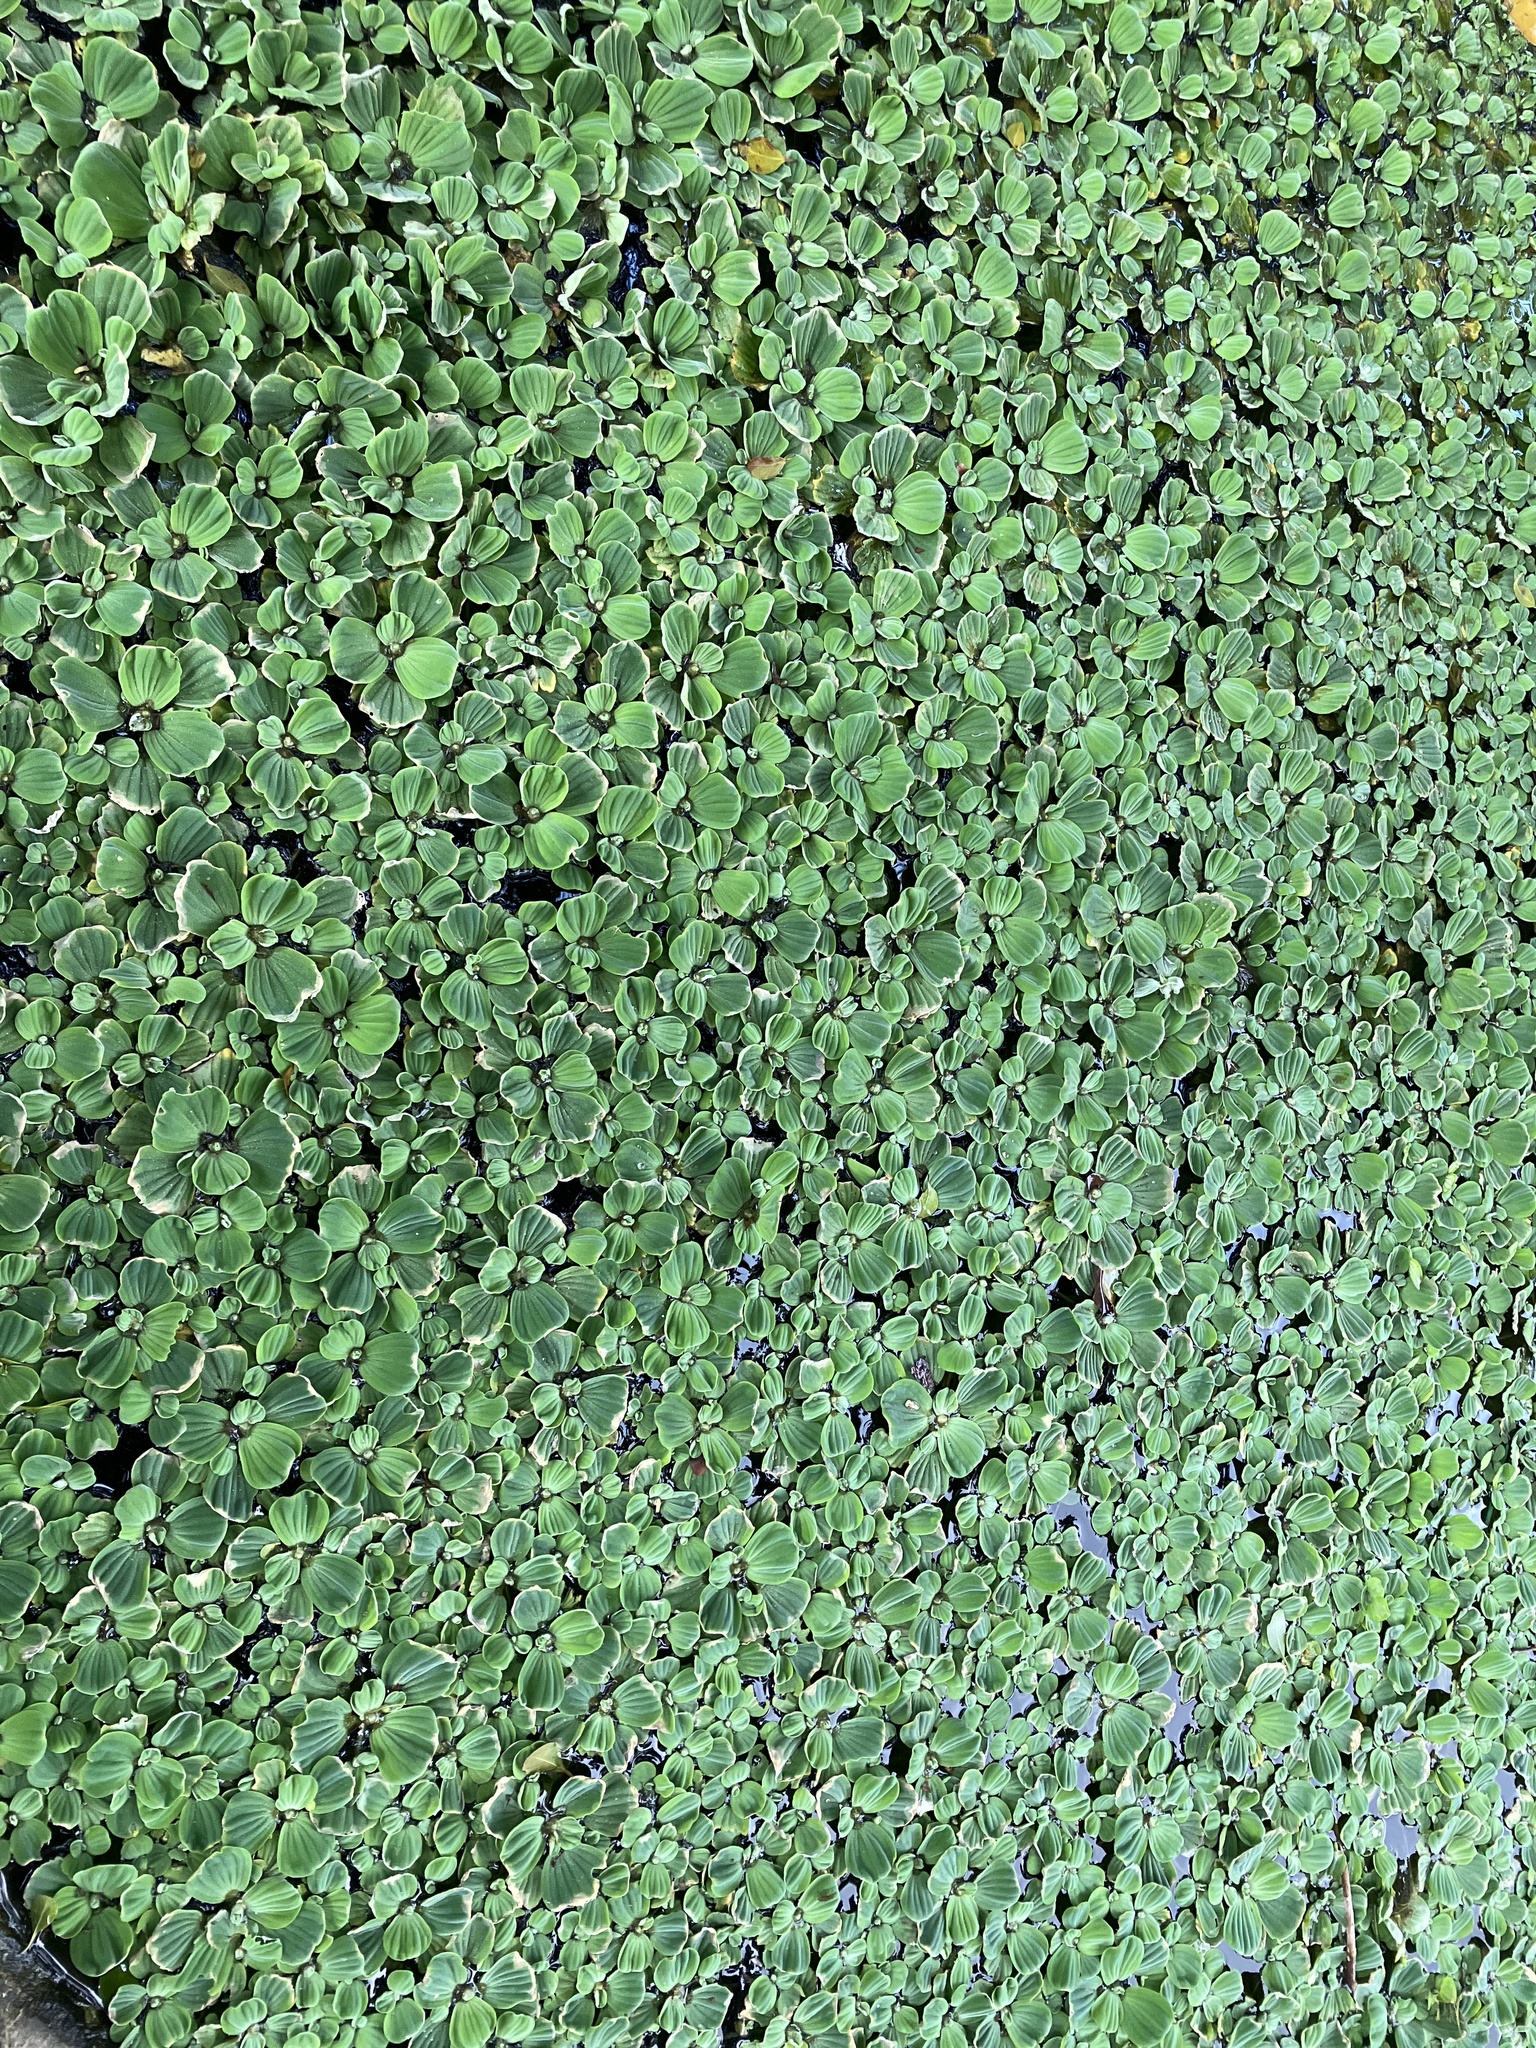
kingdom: Plantae
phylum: Tracheophyta
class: Liliopsida
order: Alismatales
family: Araceae
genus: Pistia
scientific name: Pistia stratiotes
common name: Water lettuce
